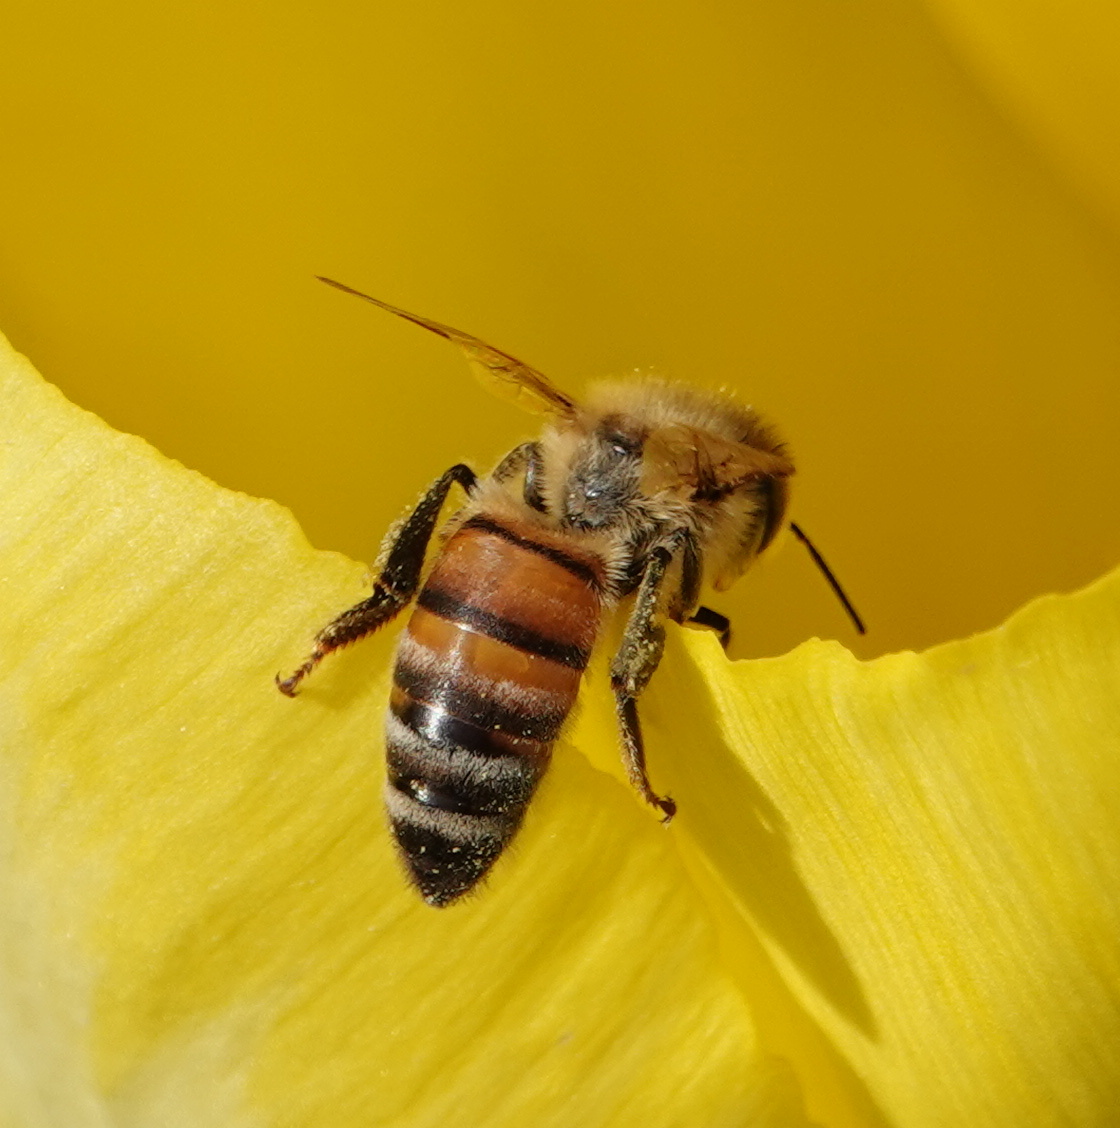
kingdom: Animalia
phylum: Arthropoda
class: Insecta
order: Hymenoptera
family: Apidae
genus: Apis
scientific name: Apis mellifera
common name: Honey bee
